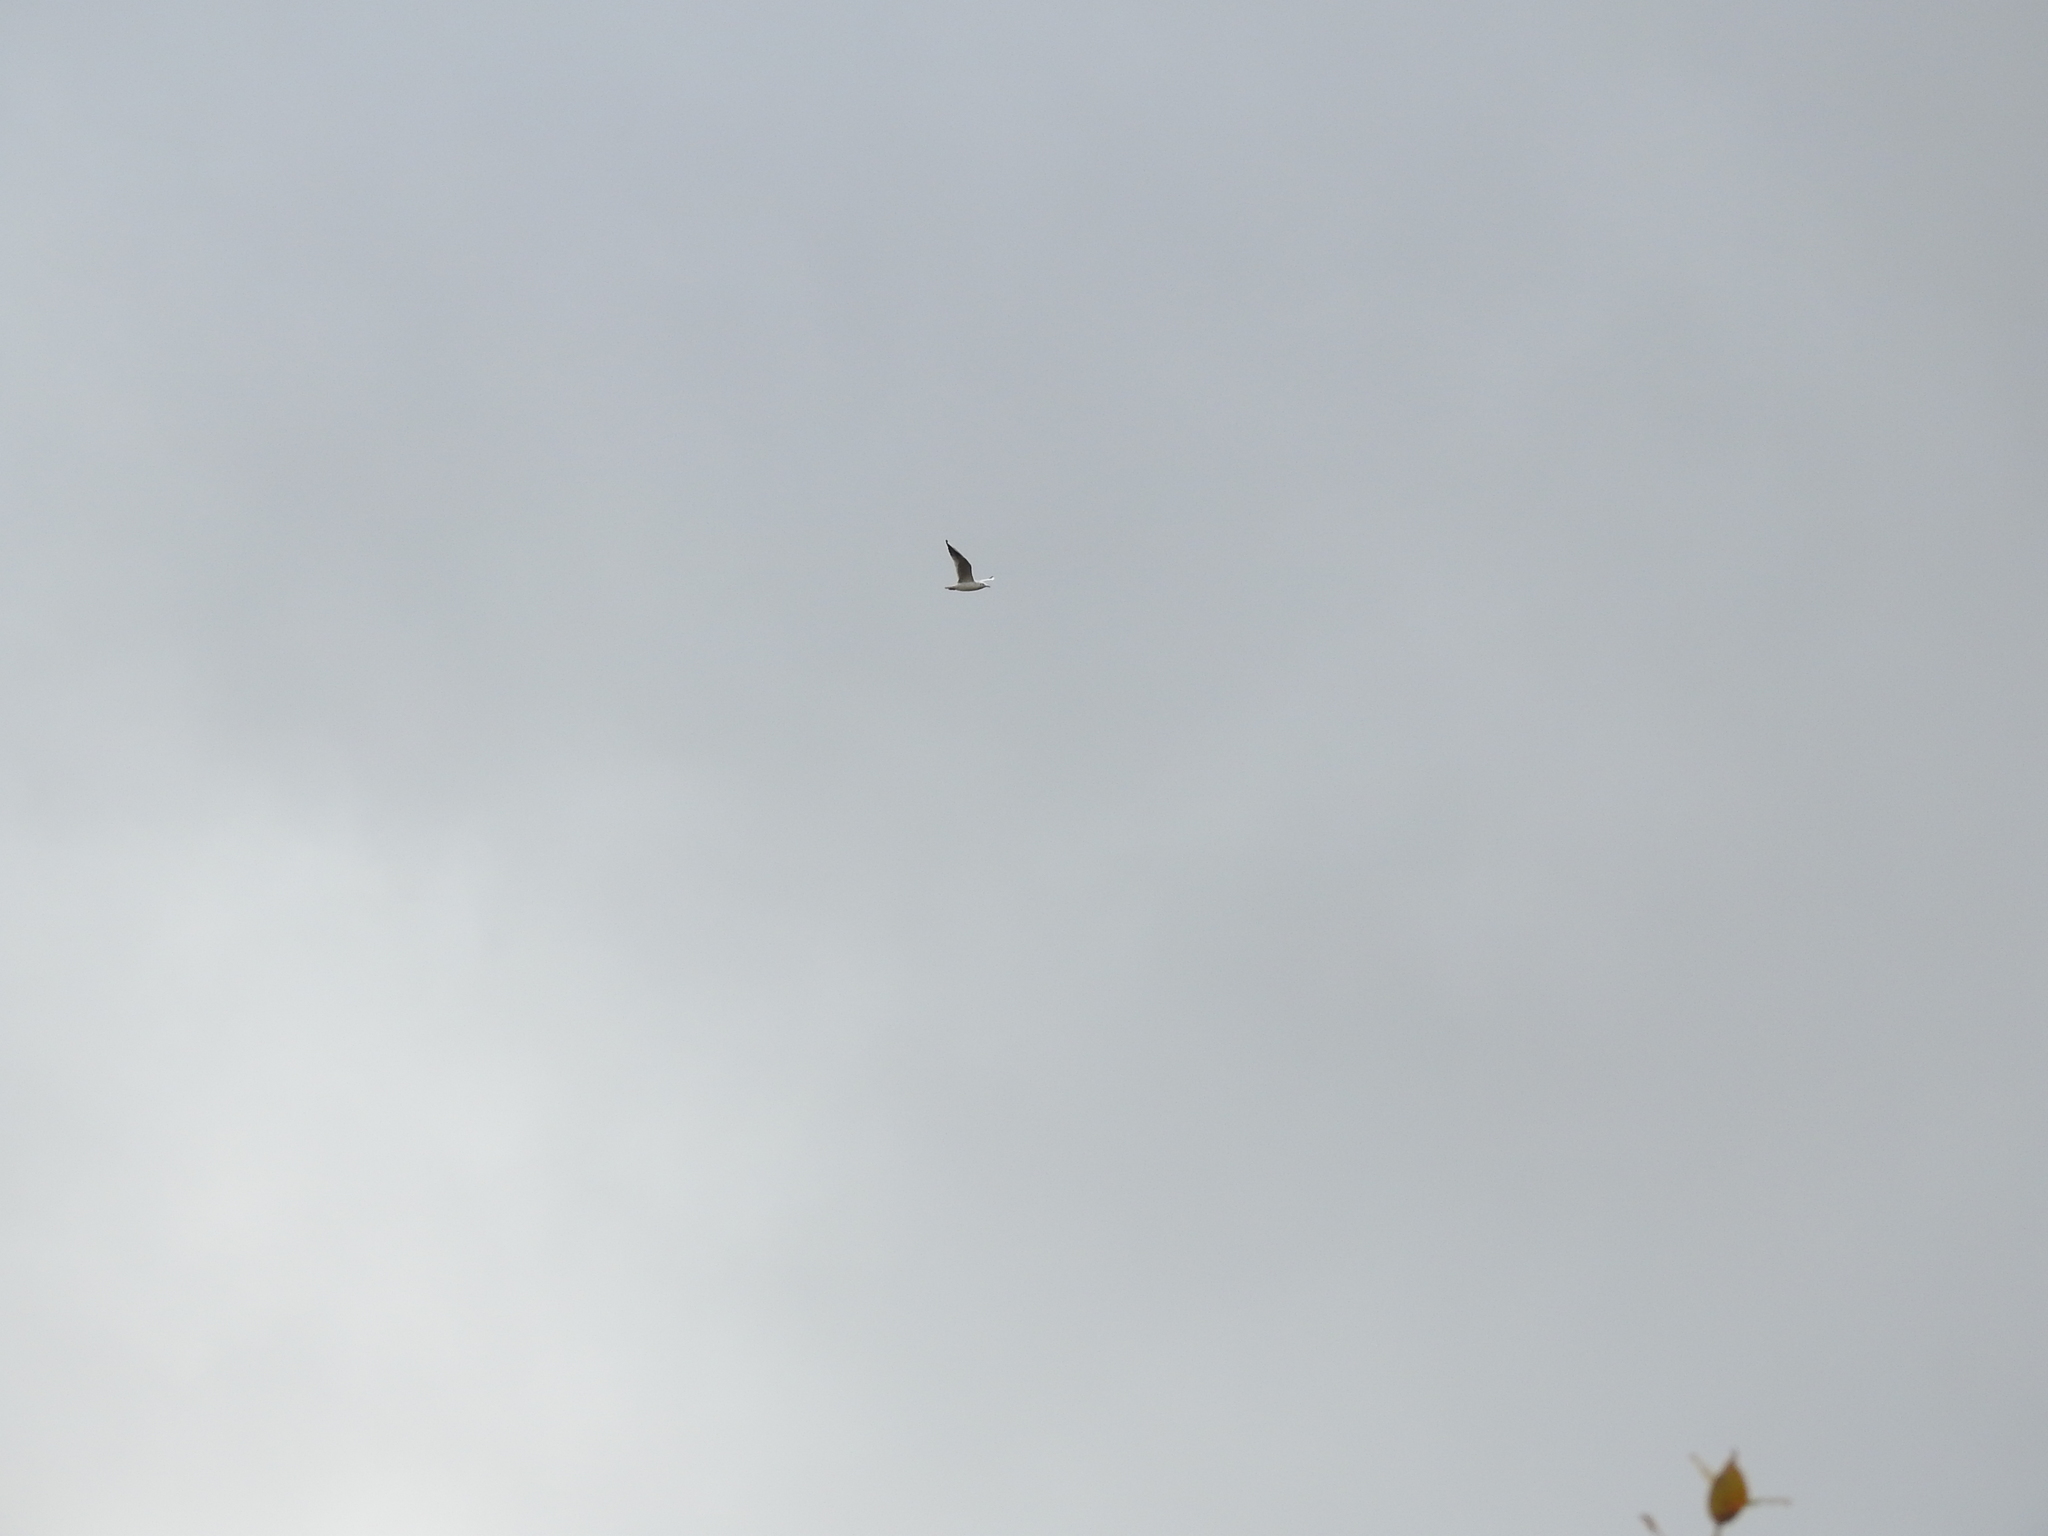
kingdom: Animalia
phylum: Chordata
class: Aves
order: Charadriiformes
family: Laridae
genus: Chroicocephalus
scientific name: Chroicocephalus ridibundus
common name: Black-headed gull
